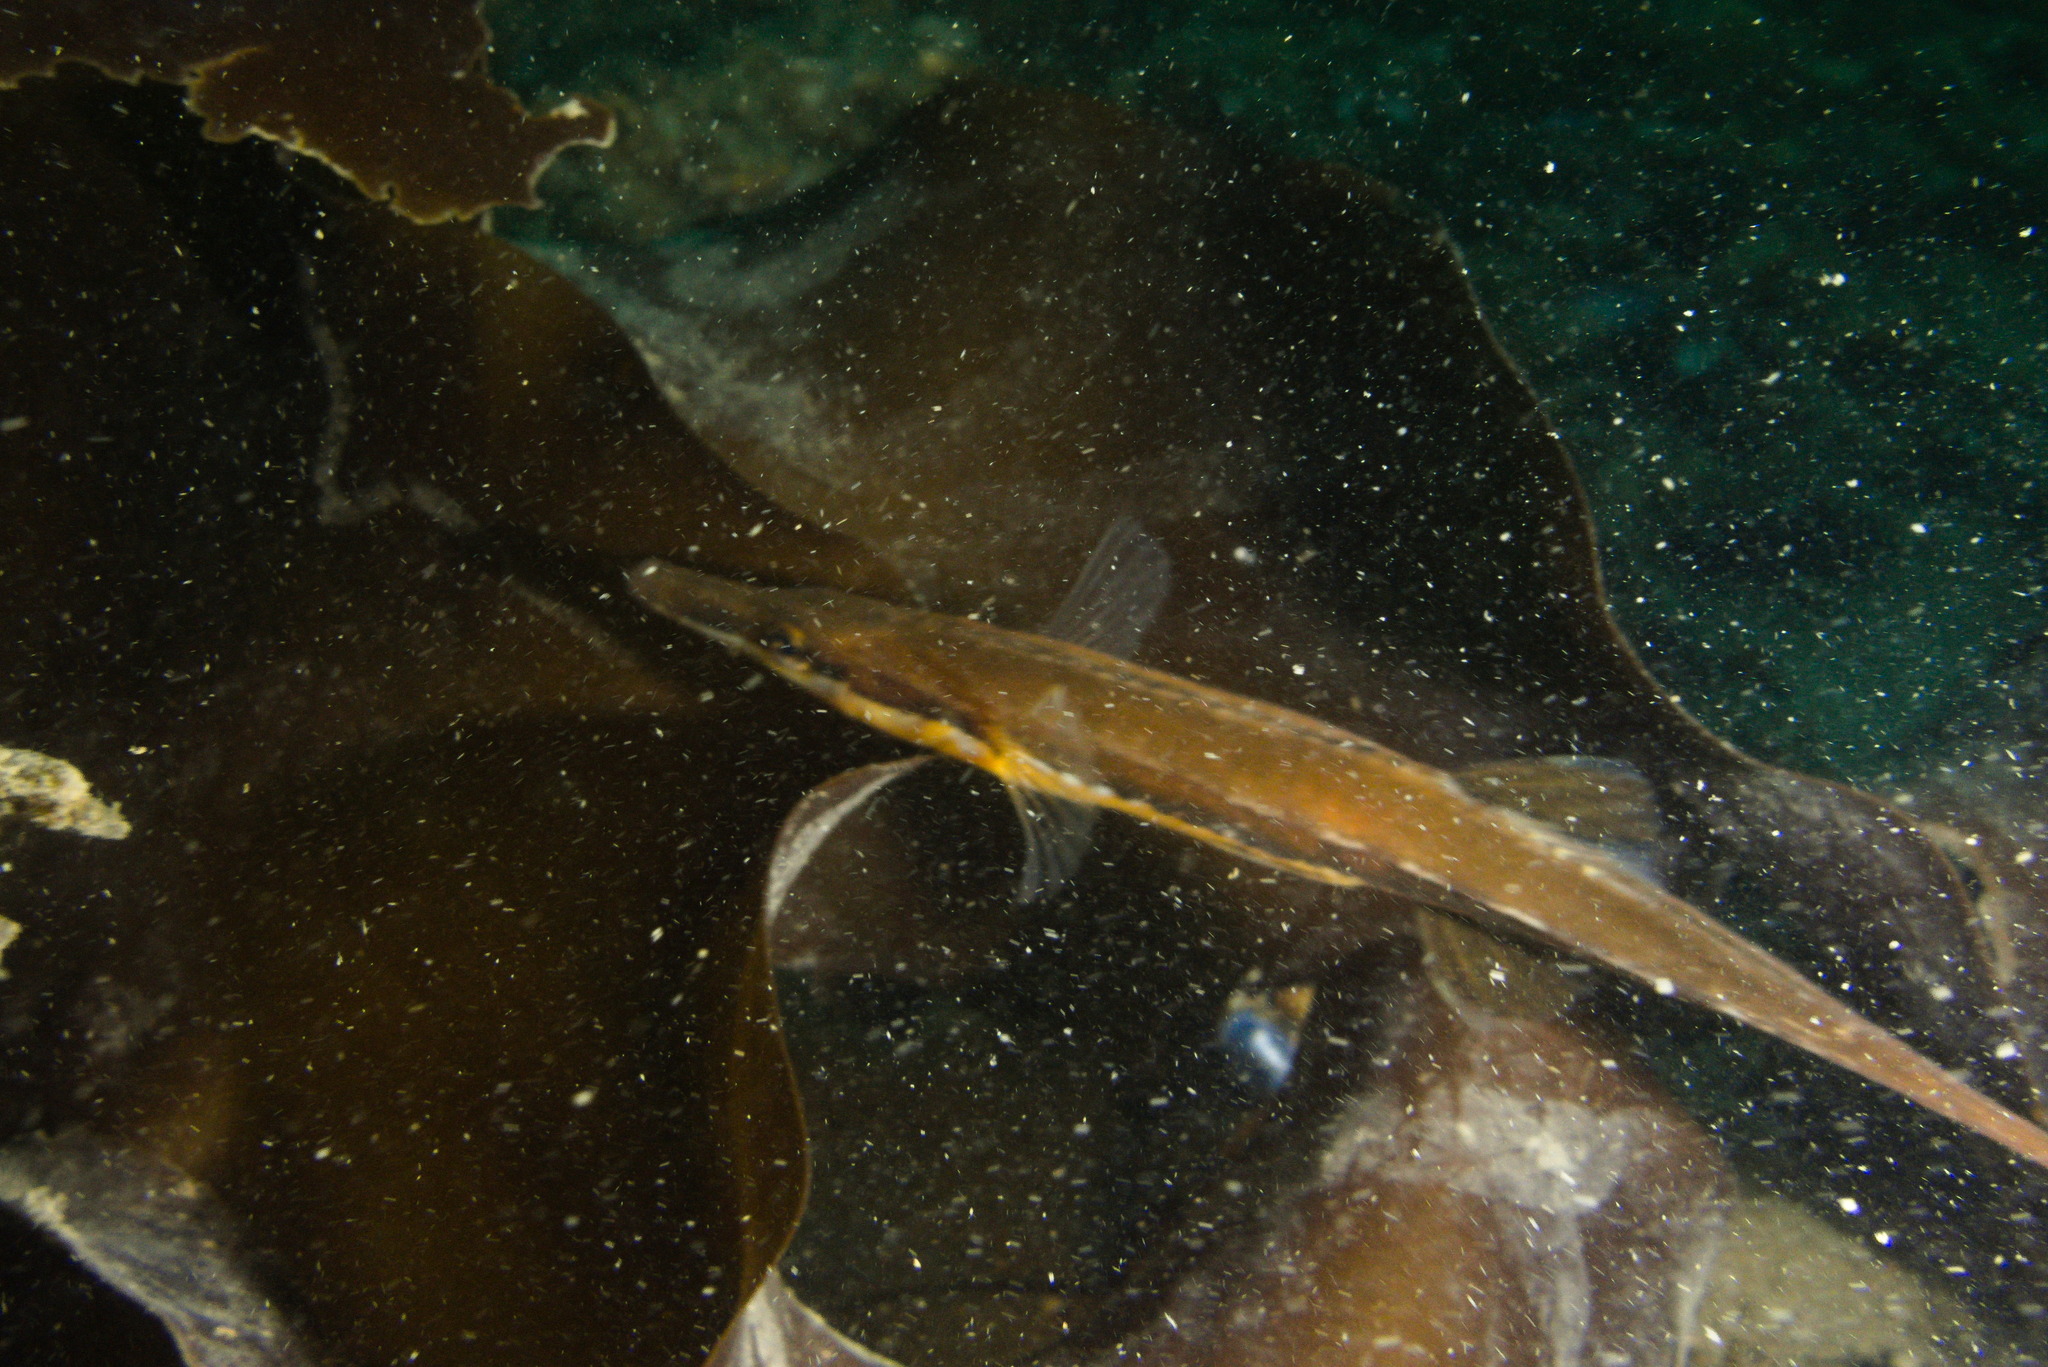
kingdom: Animalia
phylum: Chordata
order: Gasterosteiformes
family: Gasterosteidae
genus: Spinachia
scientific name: Spinachia spinachia
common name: Fifteen-spined stickleback
